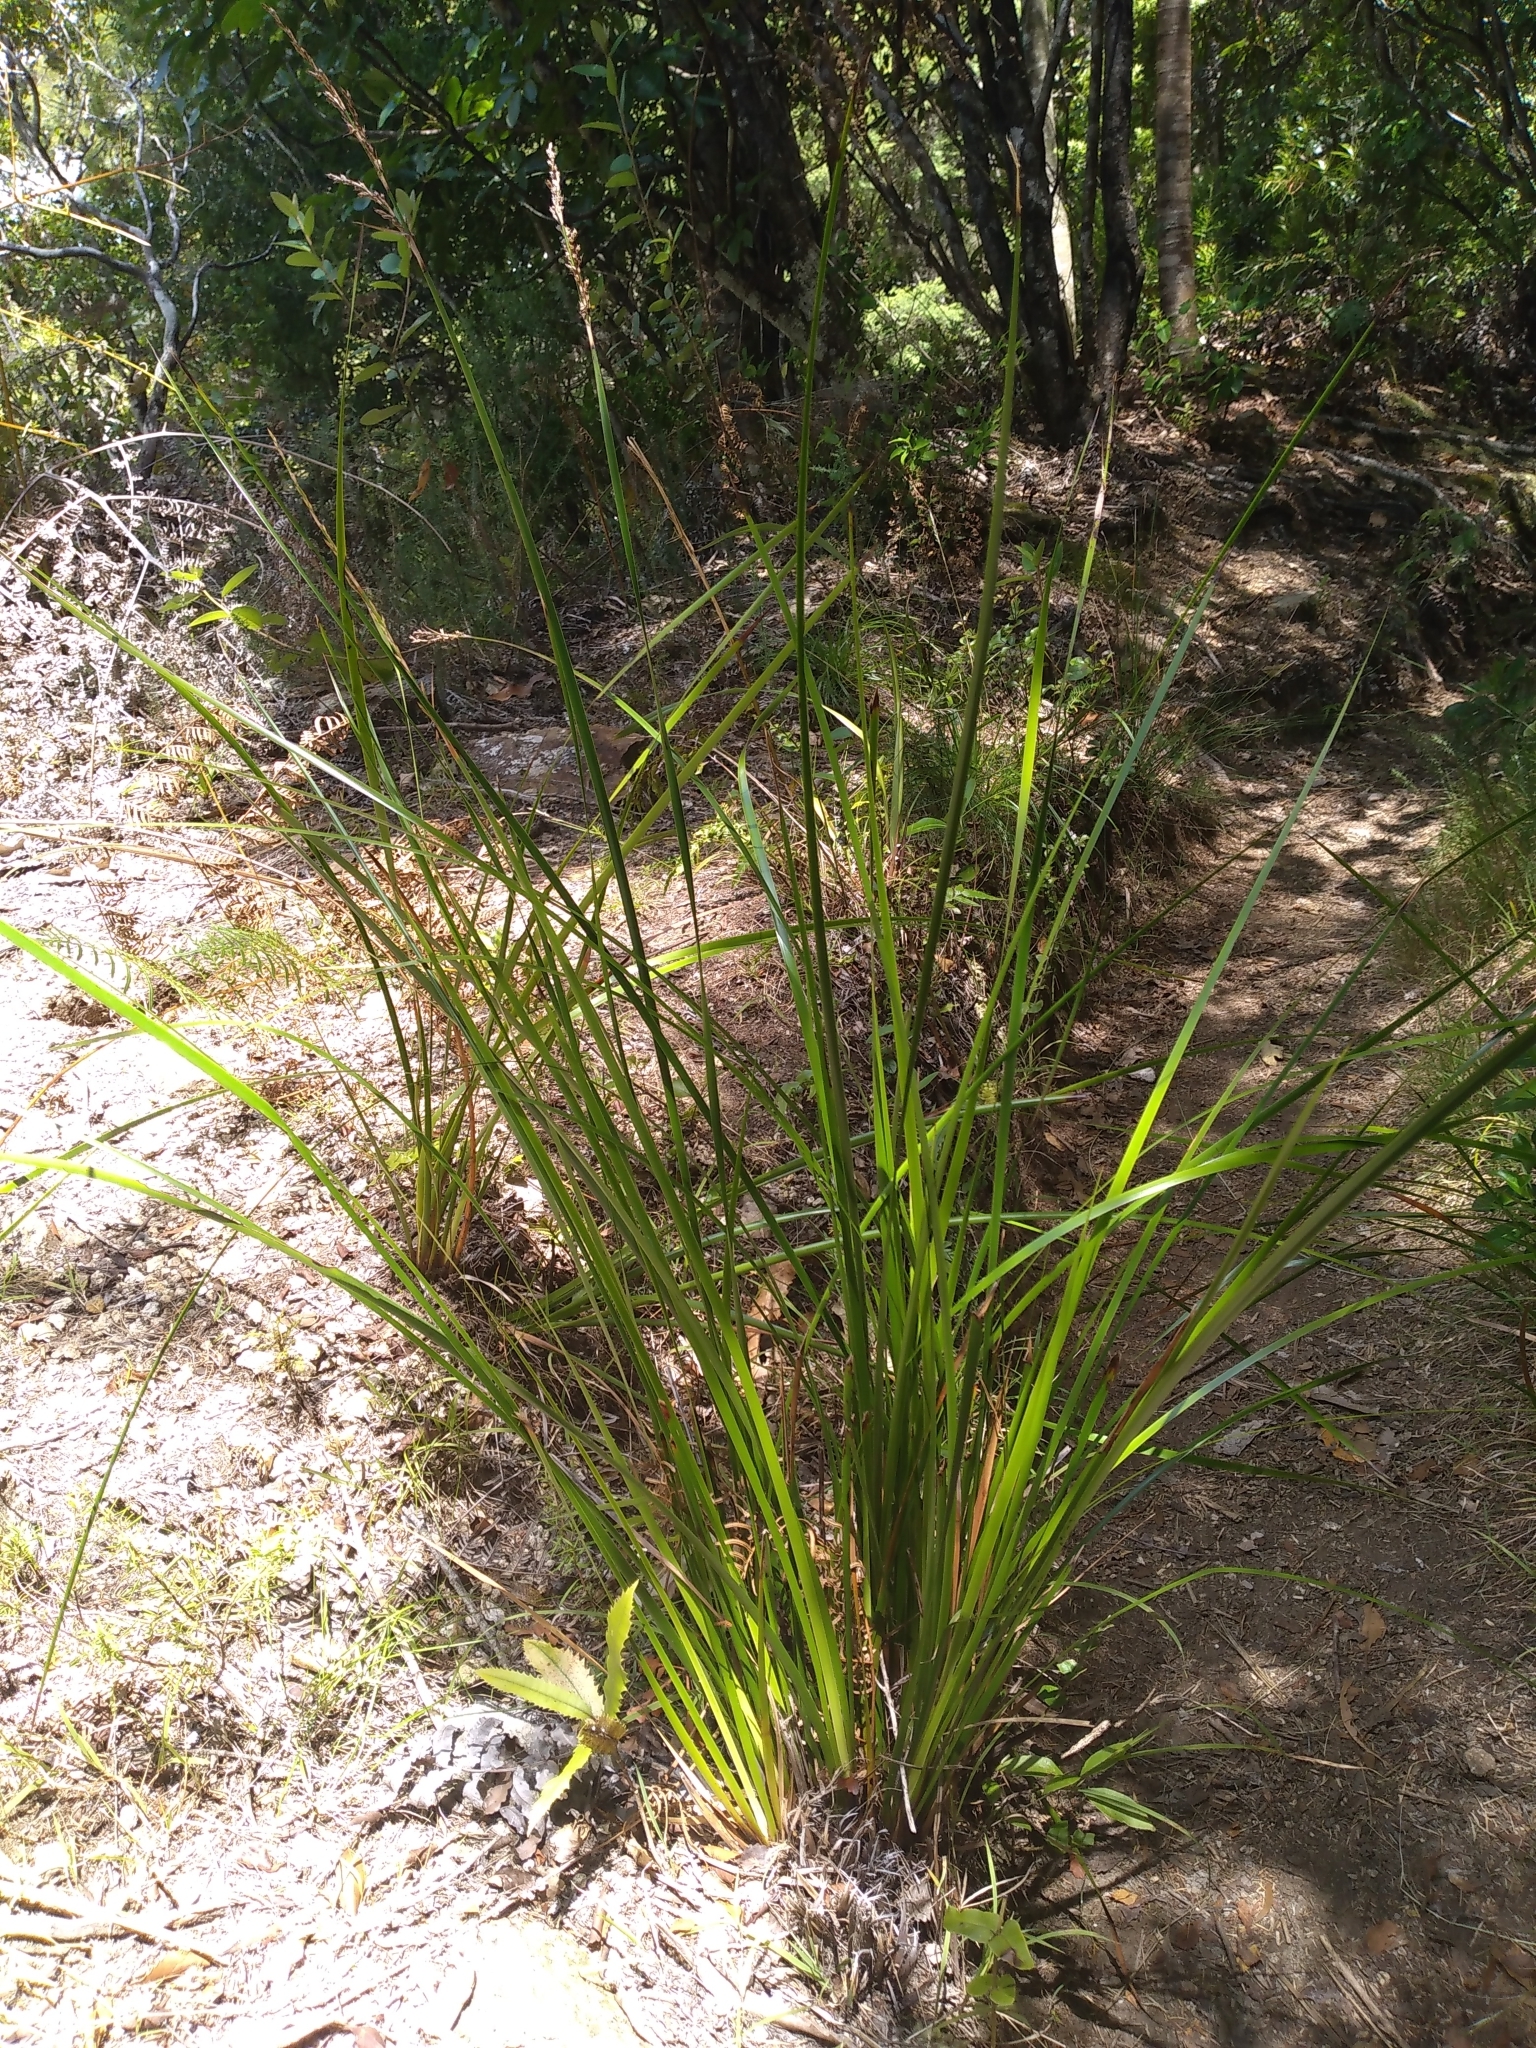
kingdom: Plantae
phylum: Tracheophyta
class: Liliopsida
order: Poales
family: Cyperaceae
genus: Lepidosperma
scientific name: Lepidosperma laterale
